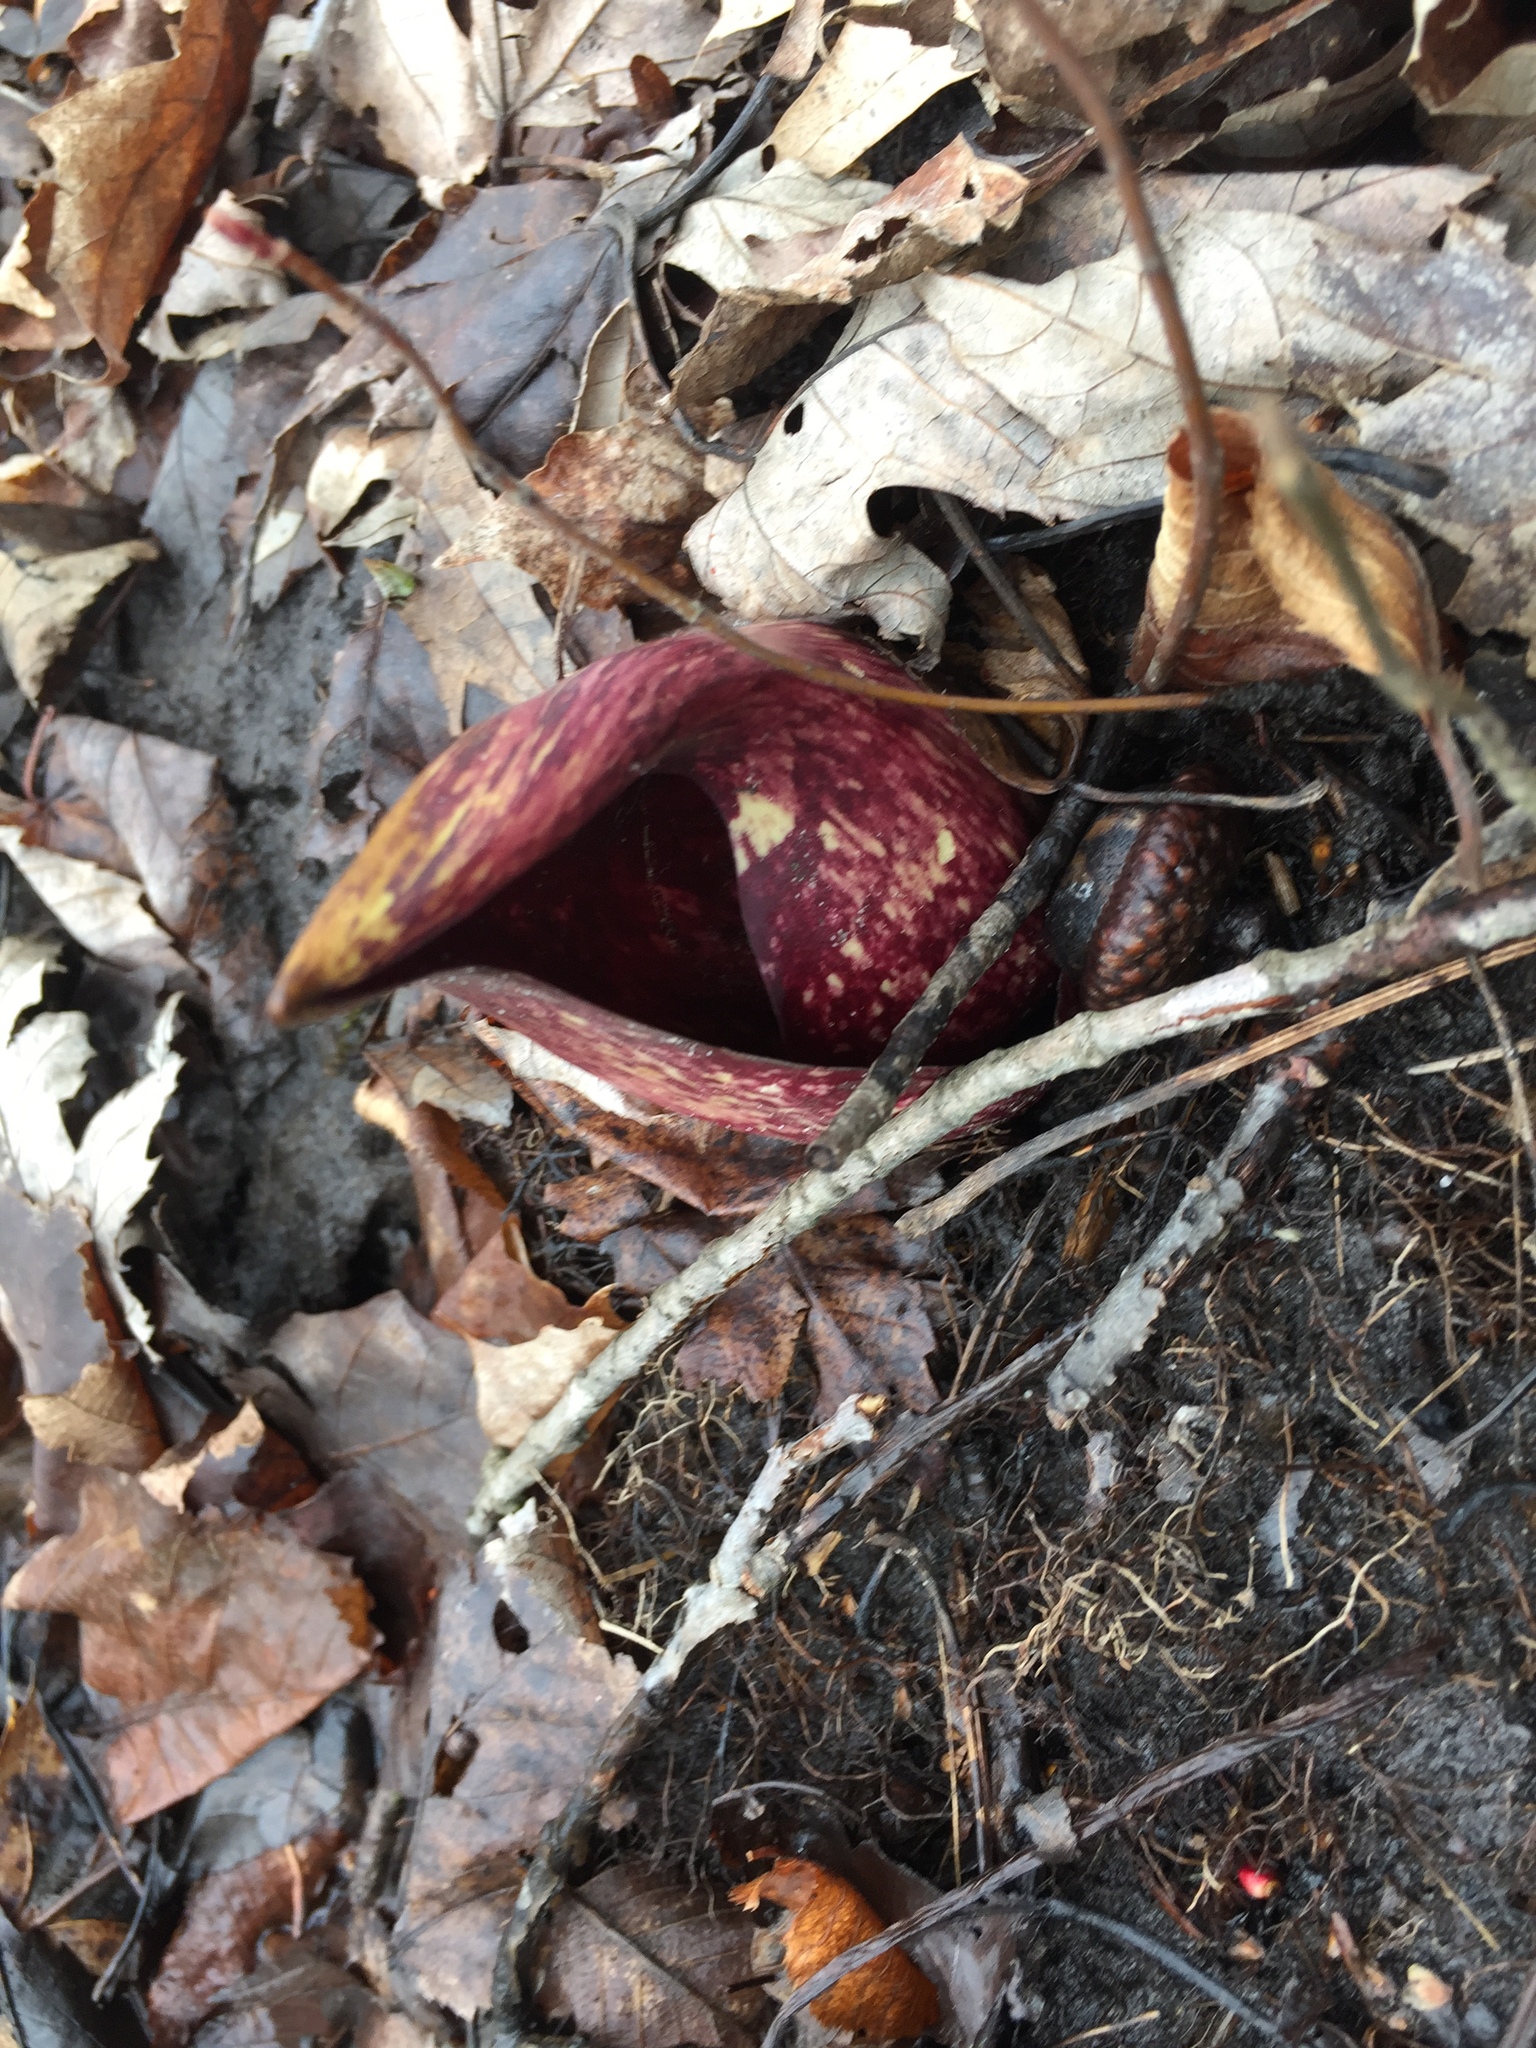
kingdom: Plantae
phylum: Tracheophyta
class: Liliopsida
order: Alismatales
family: Araceae
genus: Symplocarpus
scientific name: Symplocarpus foetidus
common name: Eastern skunk cabbage
